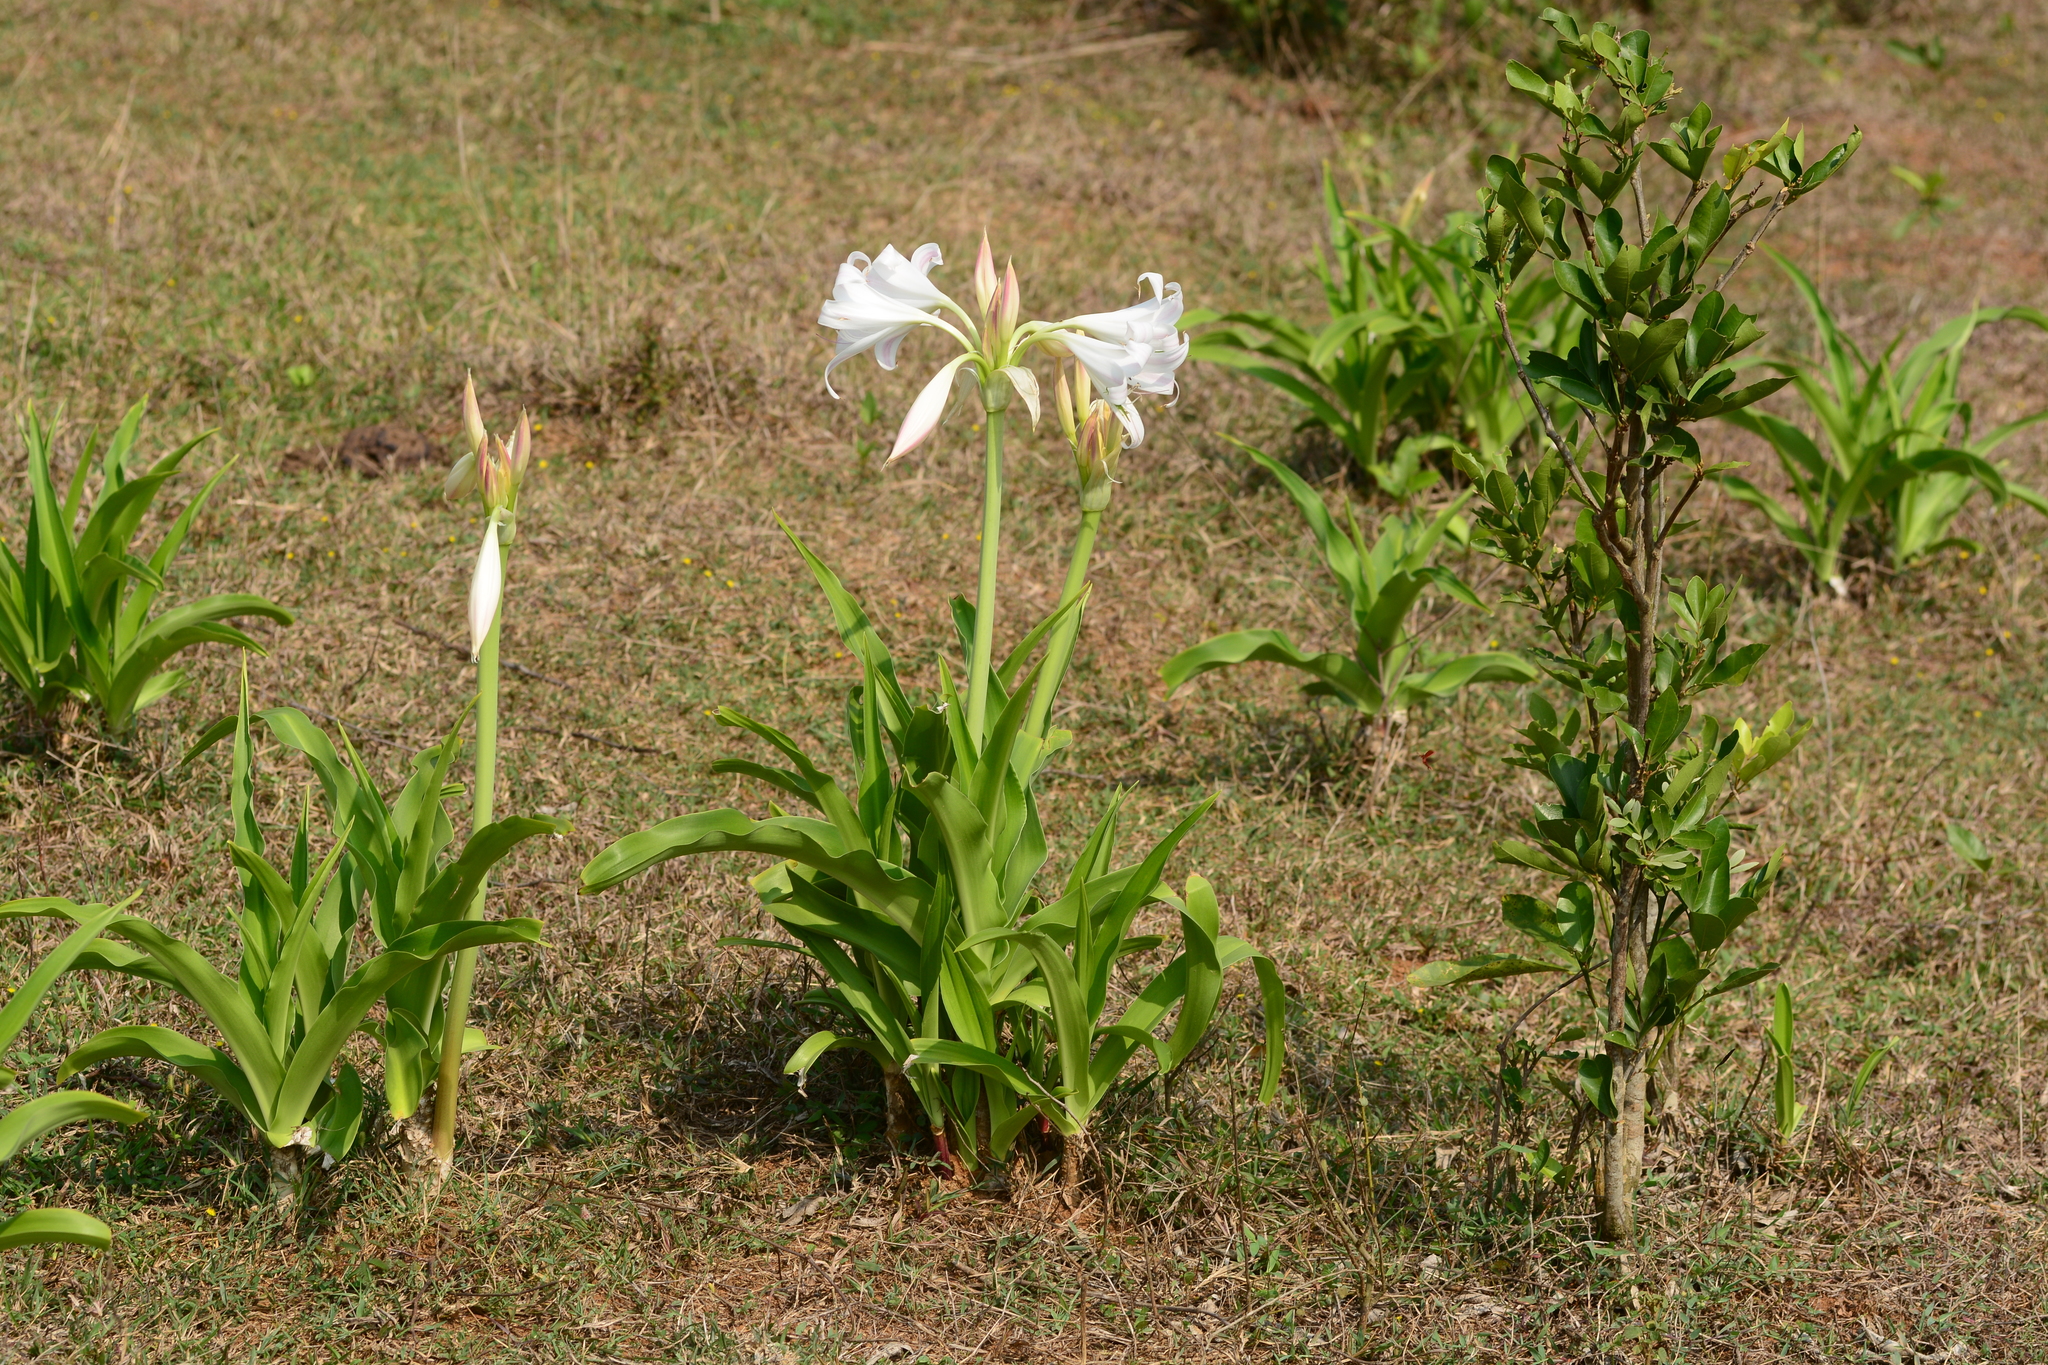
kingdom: Plantae
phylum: Tracheophyta
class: Liliopsida
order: Asparagales
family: Amaryllidaceae
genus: Crinum
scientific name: Crinum latifolium
